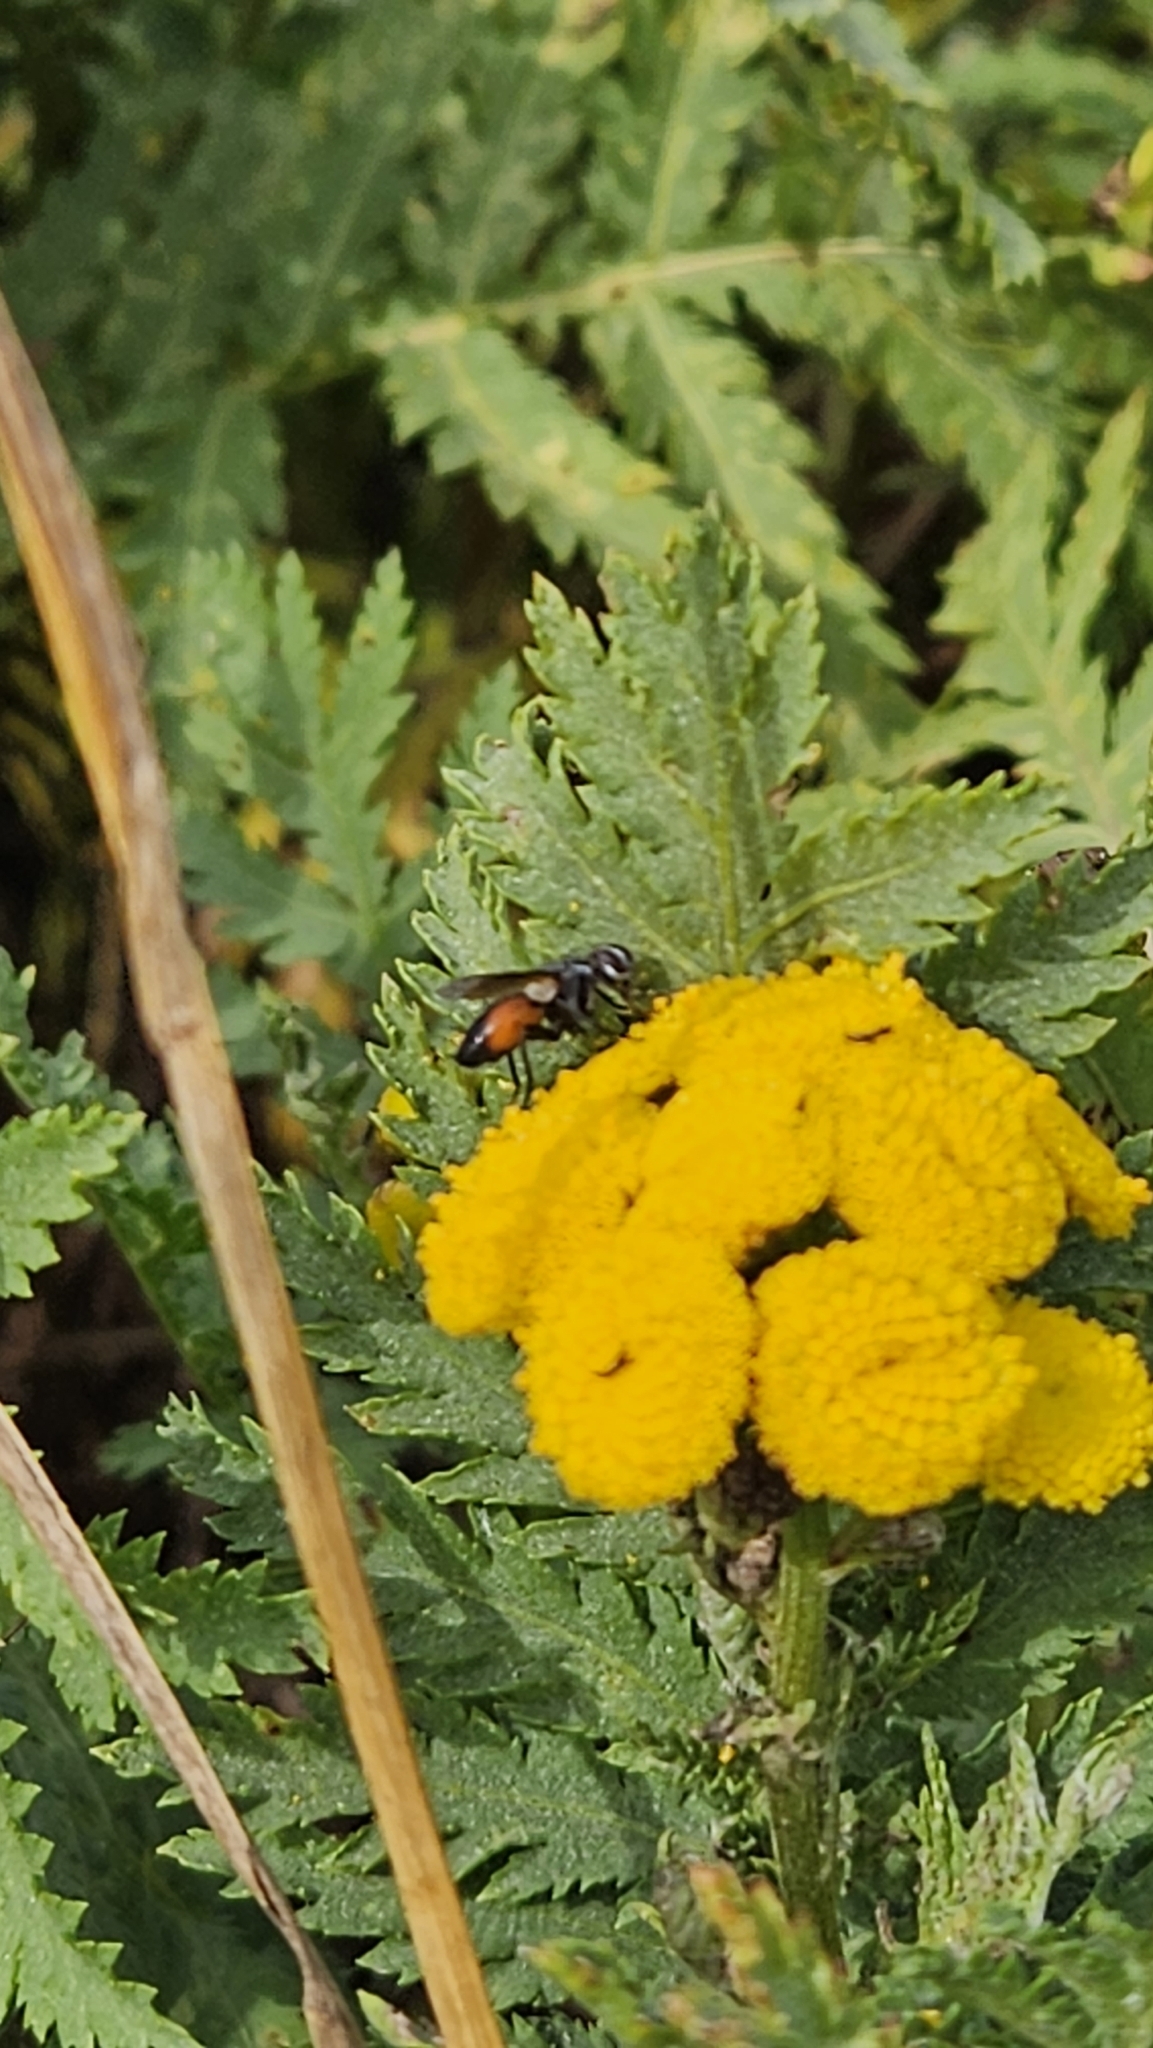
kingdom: Animalia
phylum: Arthropoda
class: Insecta
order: Diptera
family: Tachinidae
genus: Eriothrix
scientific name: Eriothrix rufomaculatus
